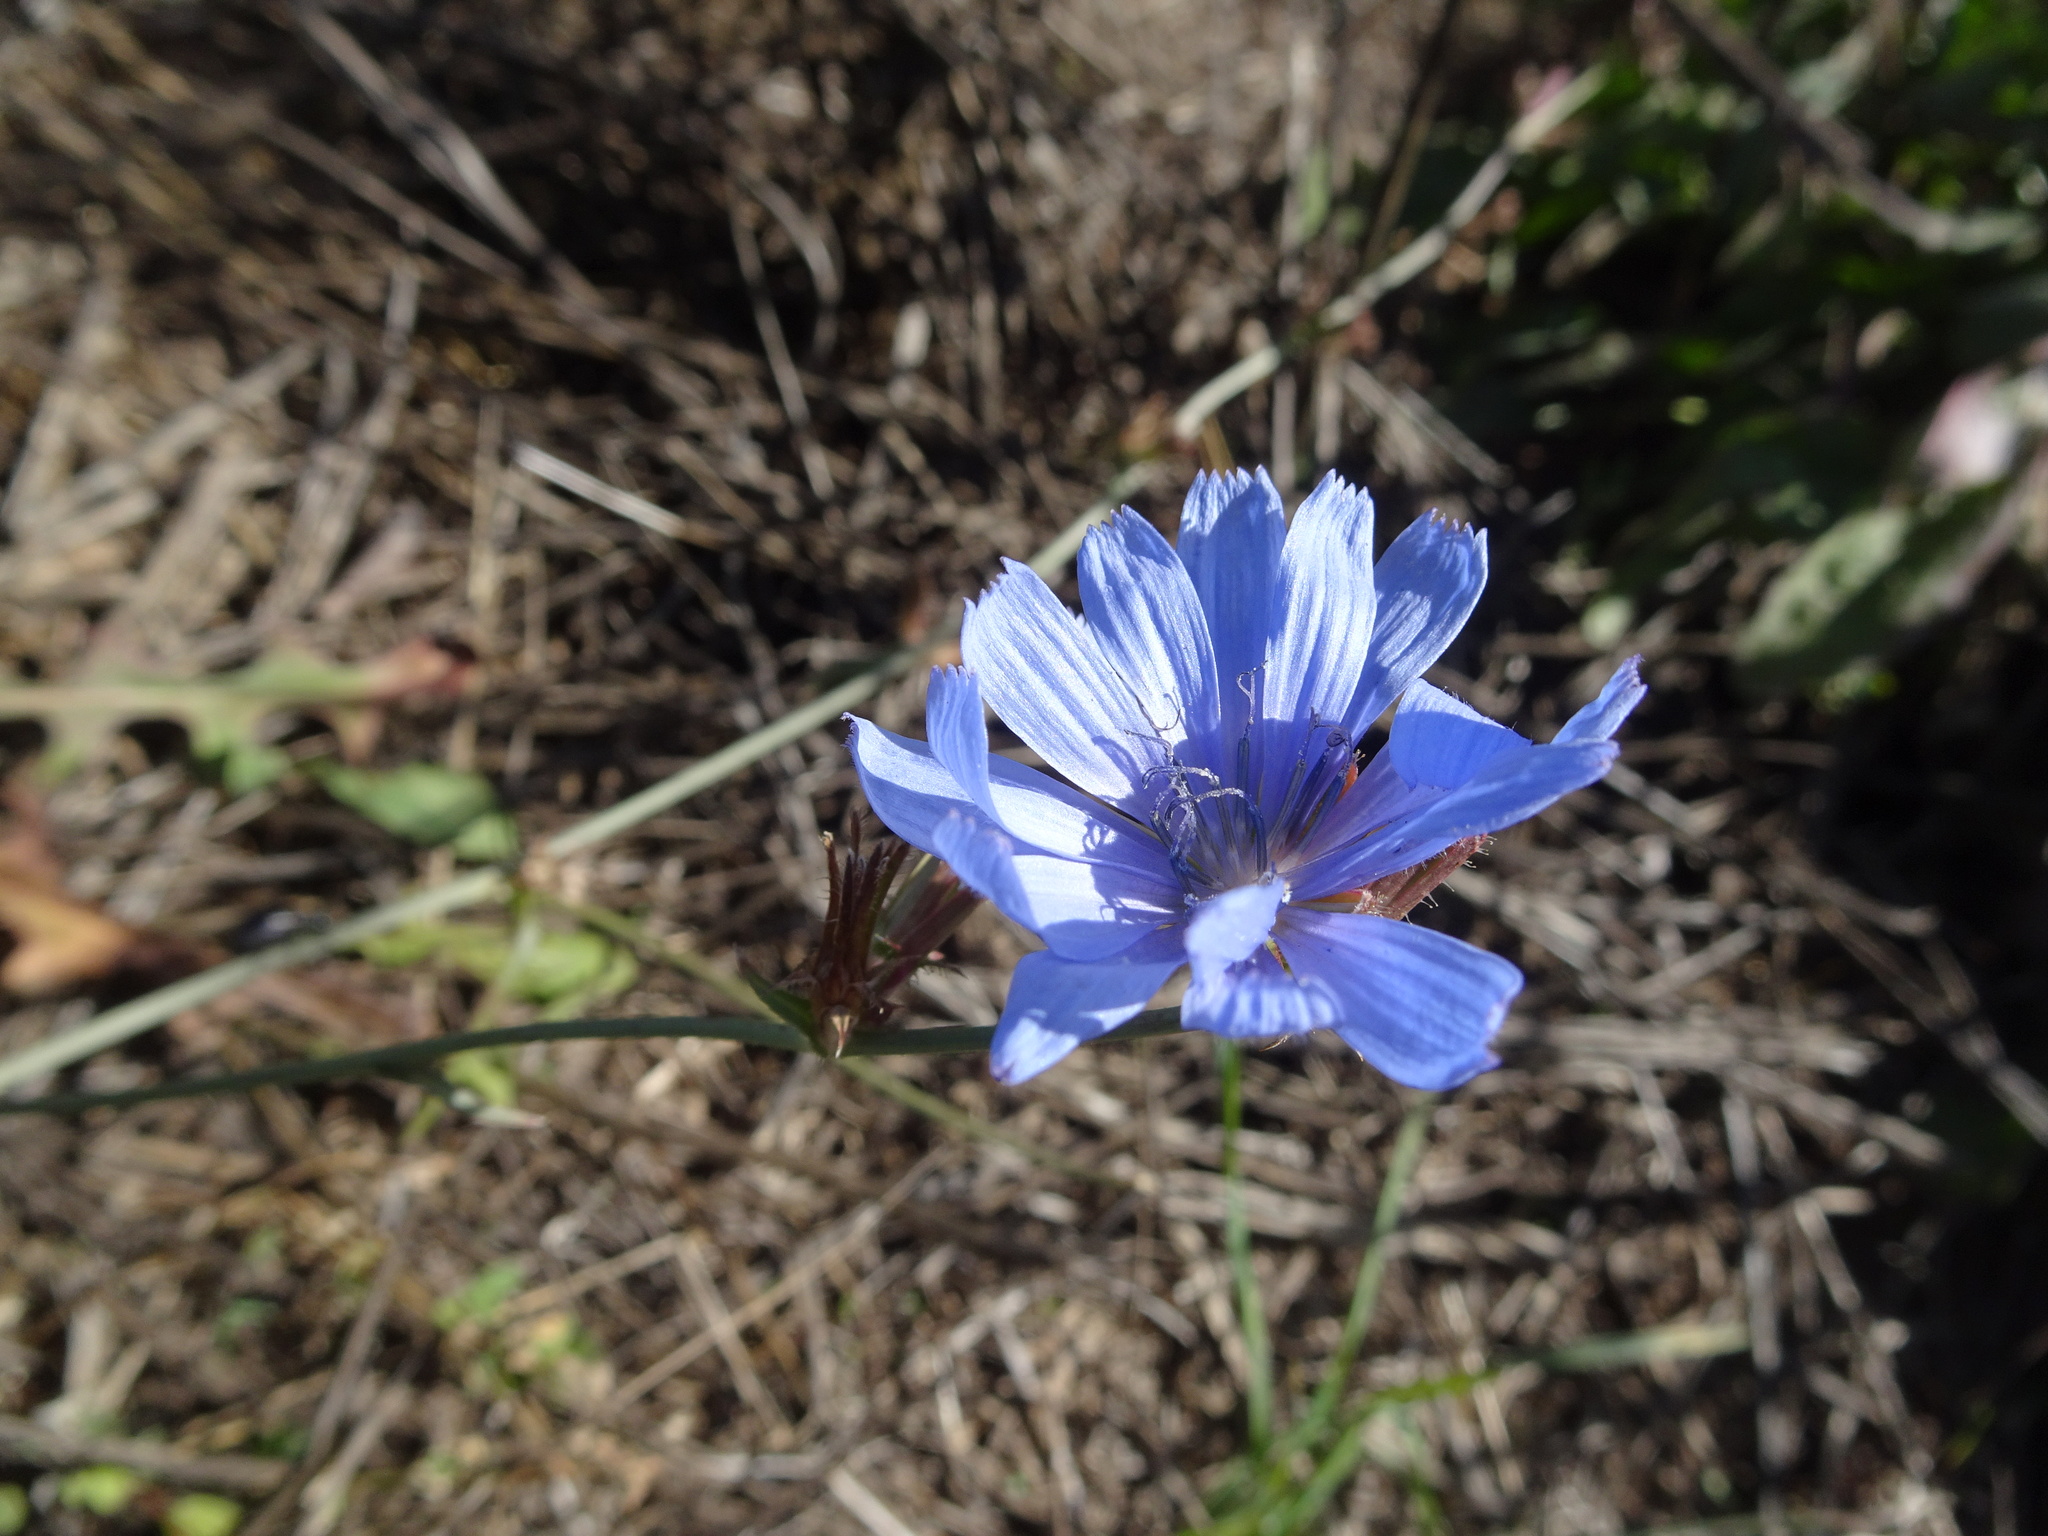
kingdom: Plantae
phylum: Tracheophyta
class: Magnoliopsida
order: Asterales
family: Asteraceae
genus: Cichorium
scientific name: Cichorium intybus
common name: Chicory
